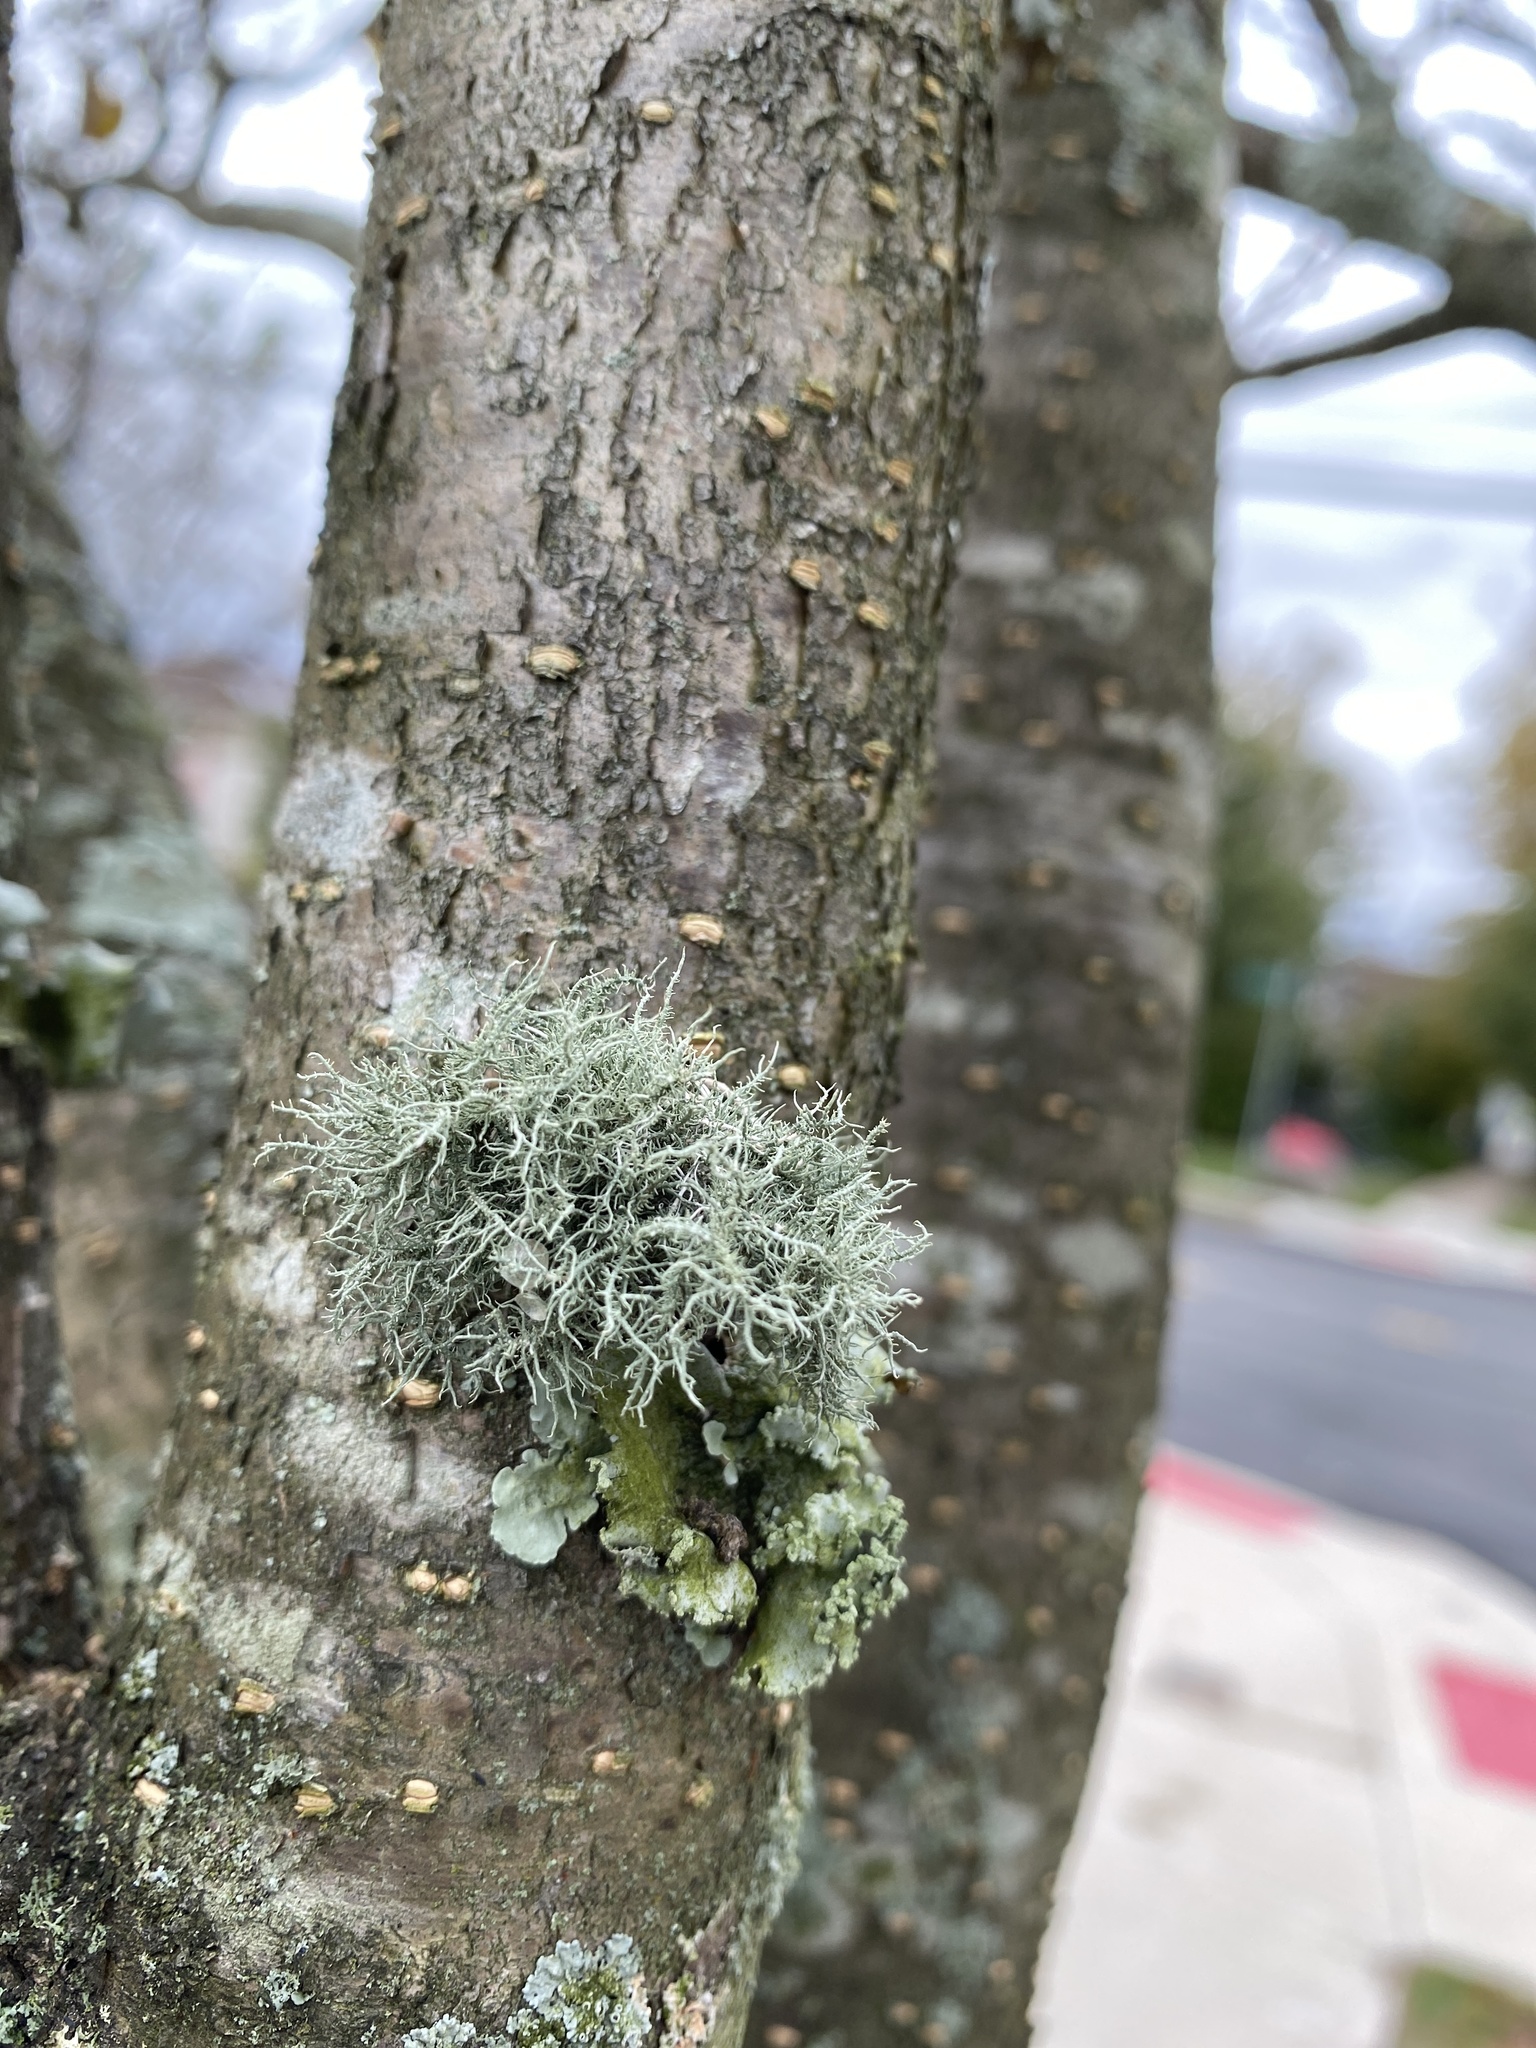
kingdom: Fungi
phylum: Ascomycota
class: Lecanoromycetes
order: Lecanorales
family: Parmeliaceae
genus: Usnea
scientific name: Usnea strigosa
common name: Bushy beard lichen
